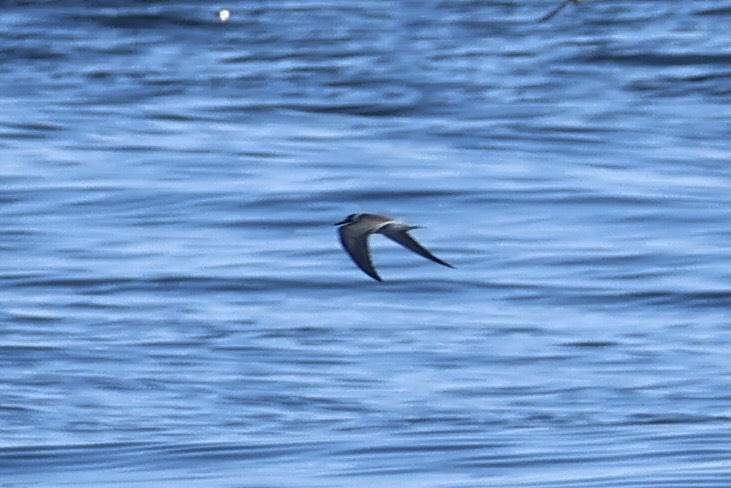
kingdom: Animalia
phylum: Chordata
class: Aves
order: Charadriiformes
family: Laridae
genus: Chlidonias
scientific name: Chlidonias niger
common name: Black tern
